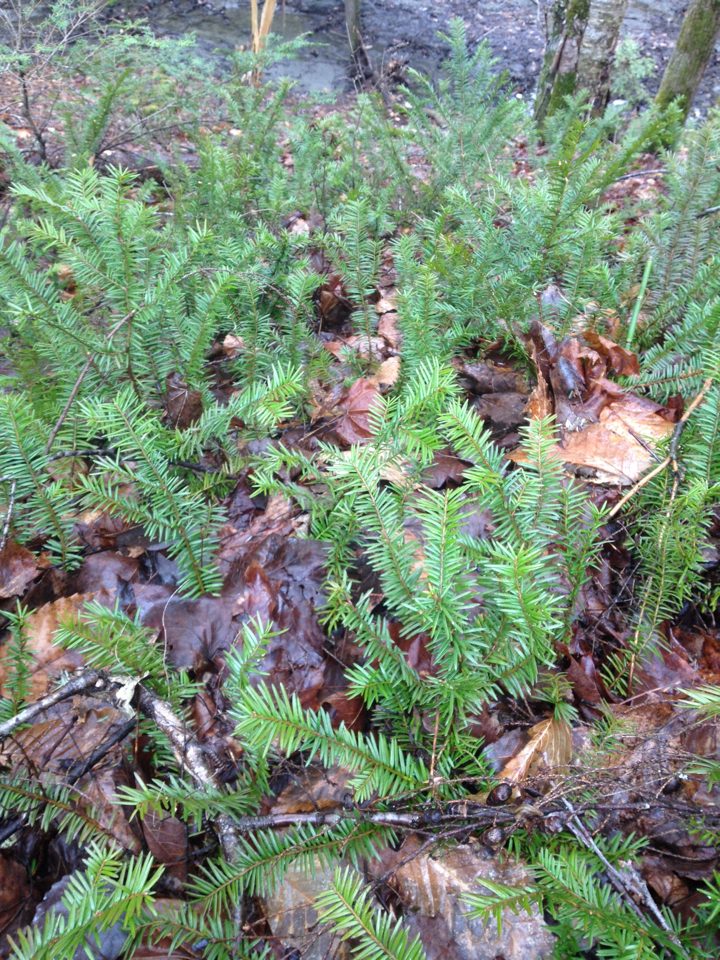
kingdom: Plantae
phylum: Tracheophyta
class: Pinopsida
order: Pinales
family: Taxaceae
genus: Taxus
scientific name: Taxus canadensis
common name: American yew
